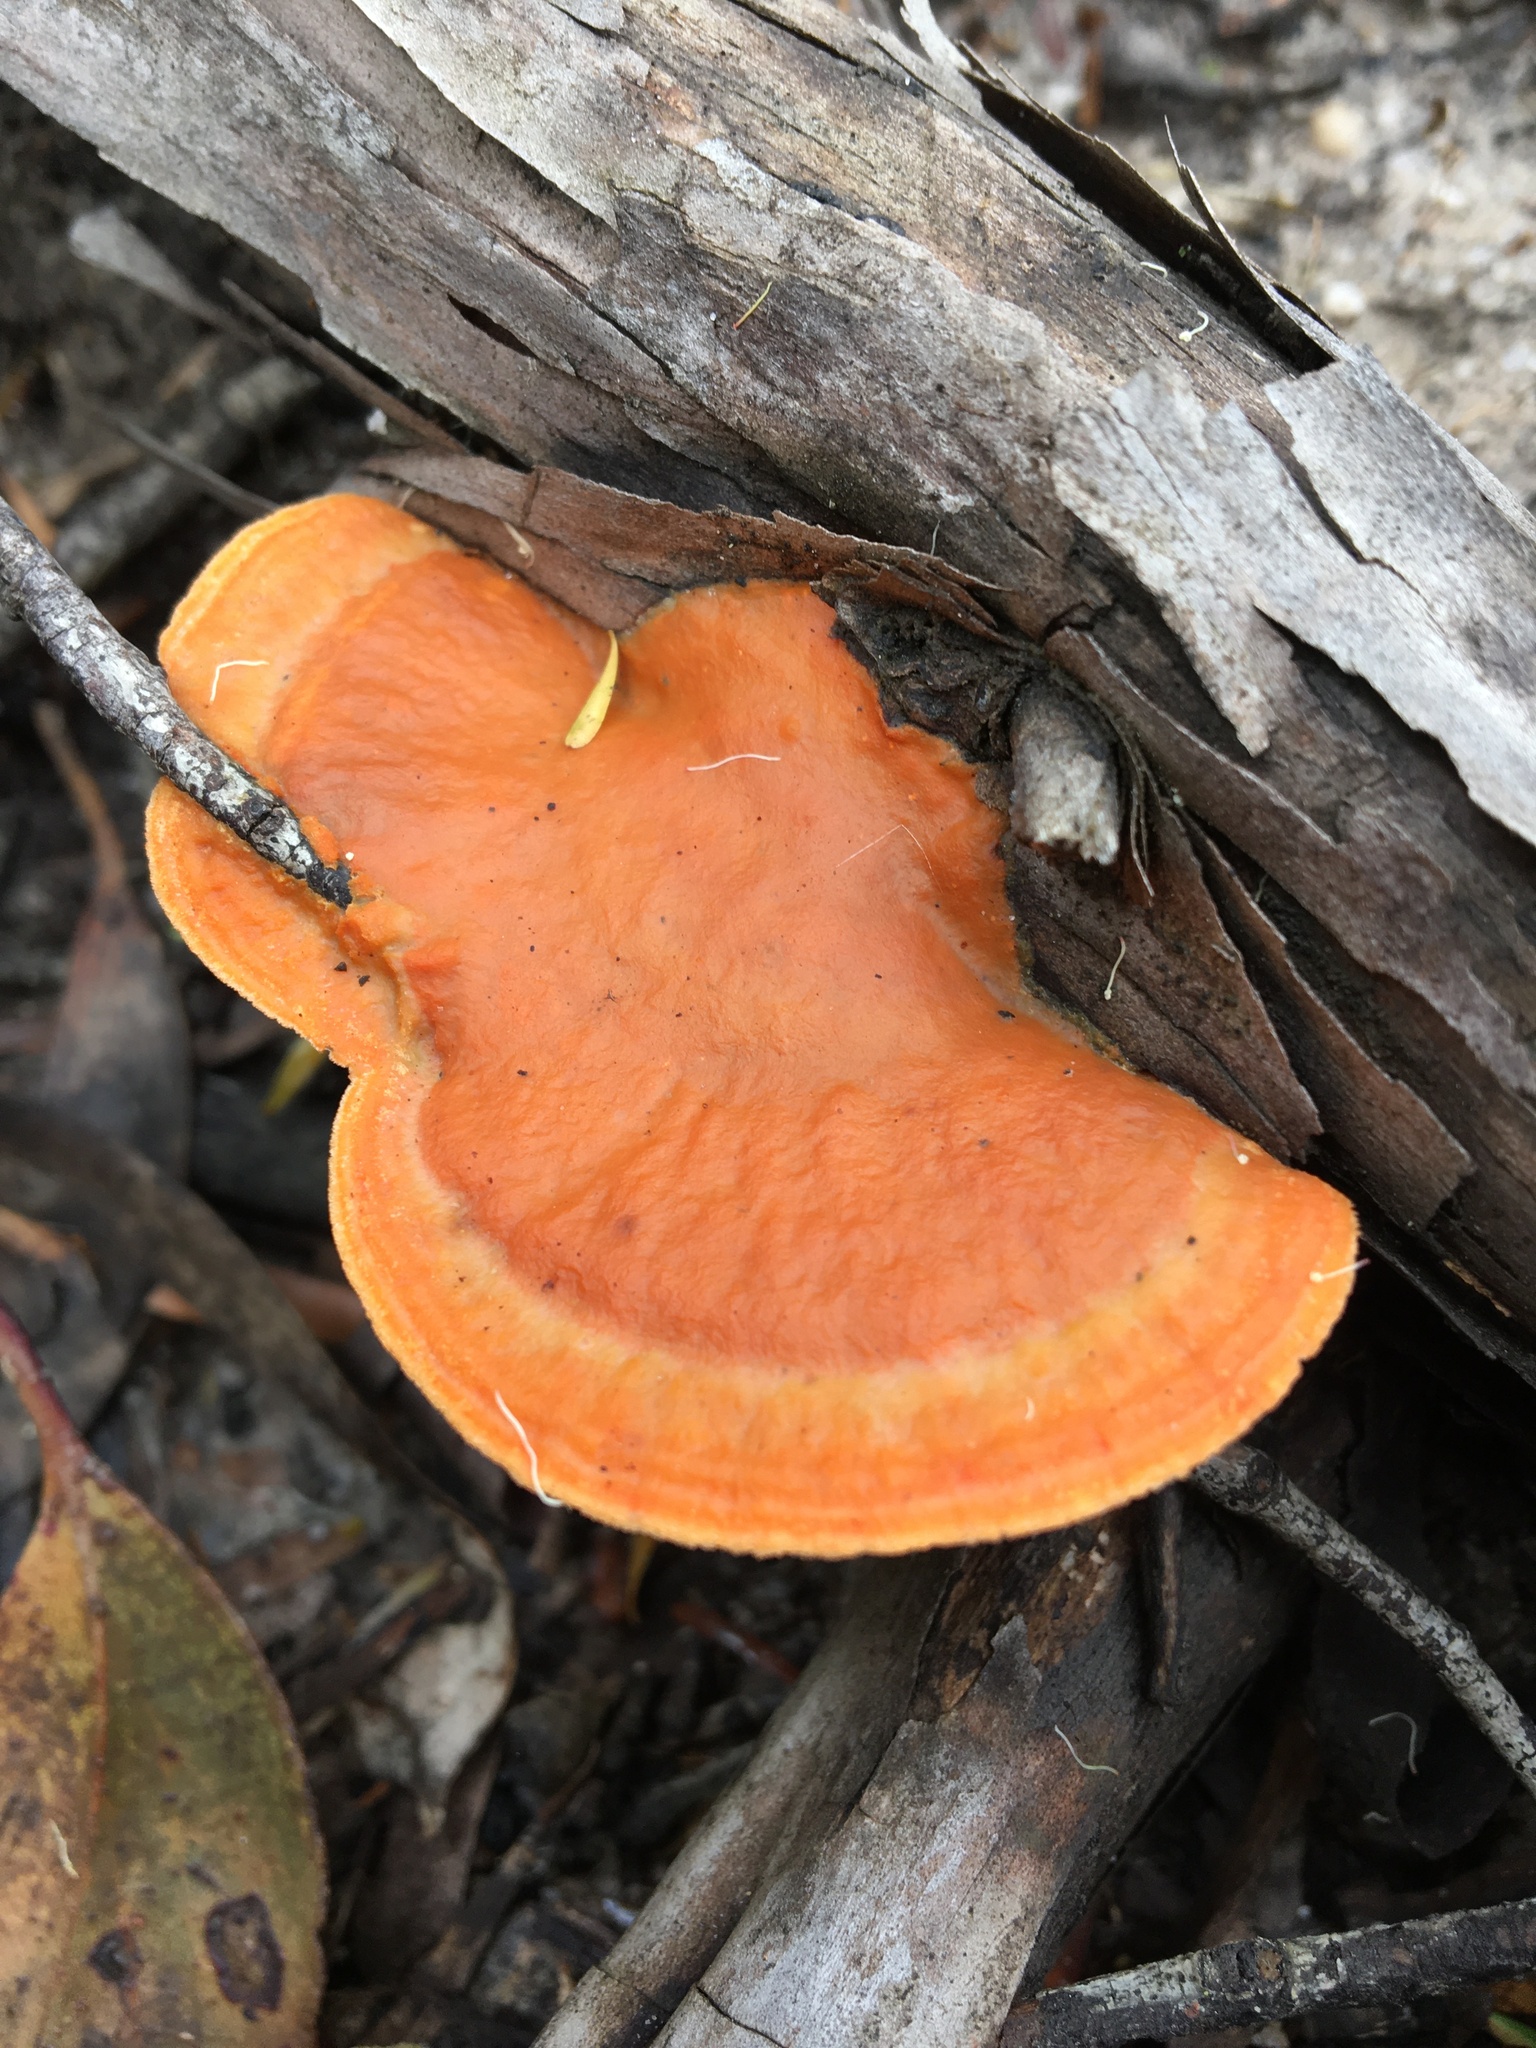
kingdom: Fungi
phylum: Basidiomycota
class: Agaricomycetes
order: Polyporales
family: Polyporaceae
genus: Trametes
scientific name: Trametes coccinea
